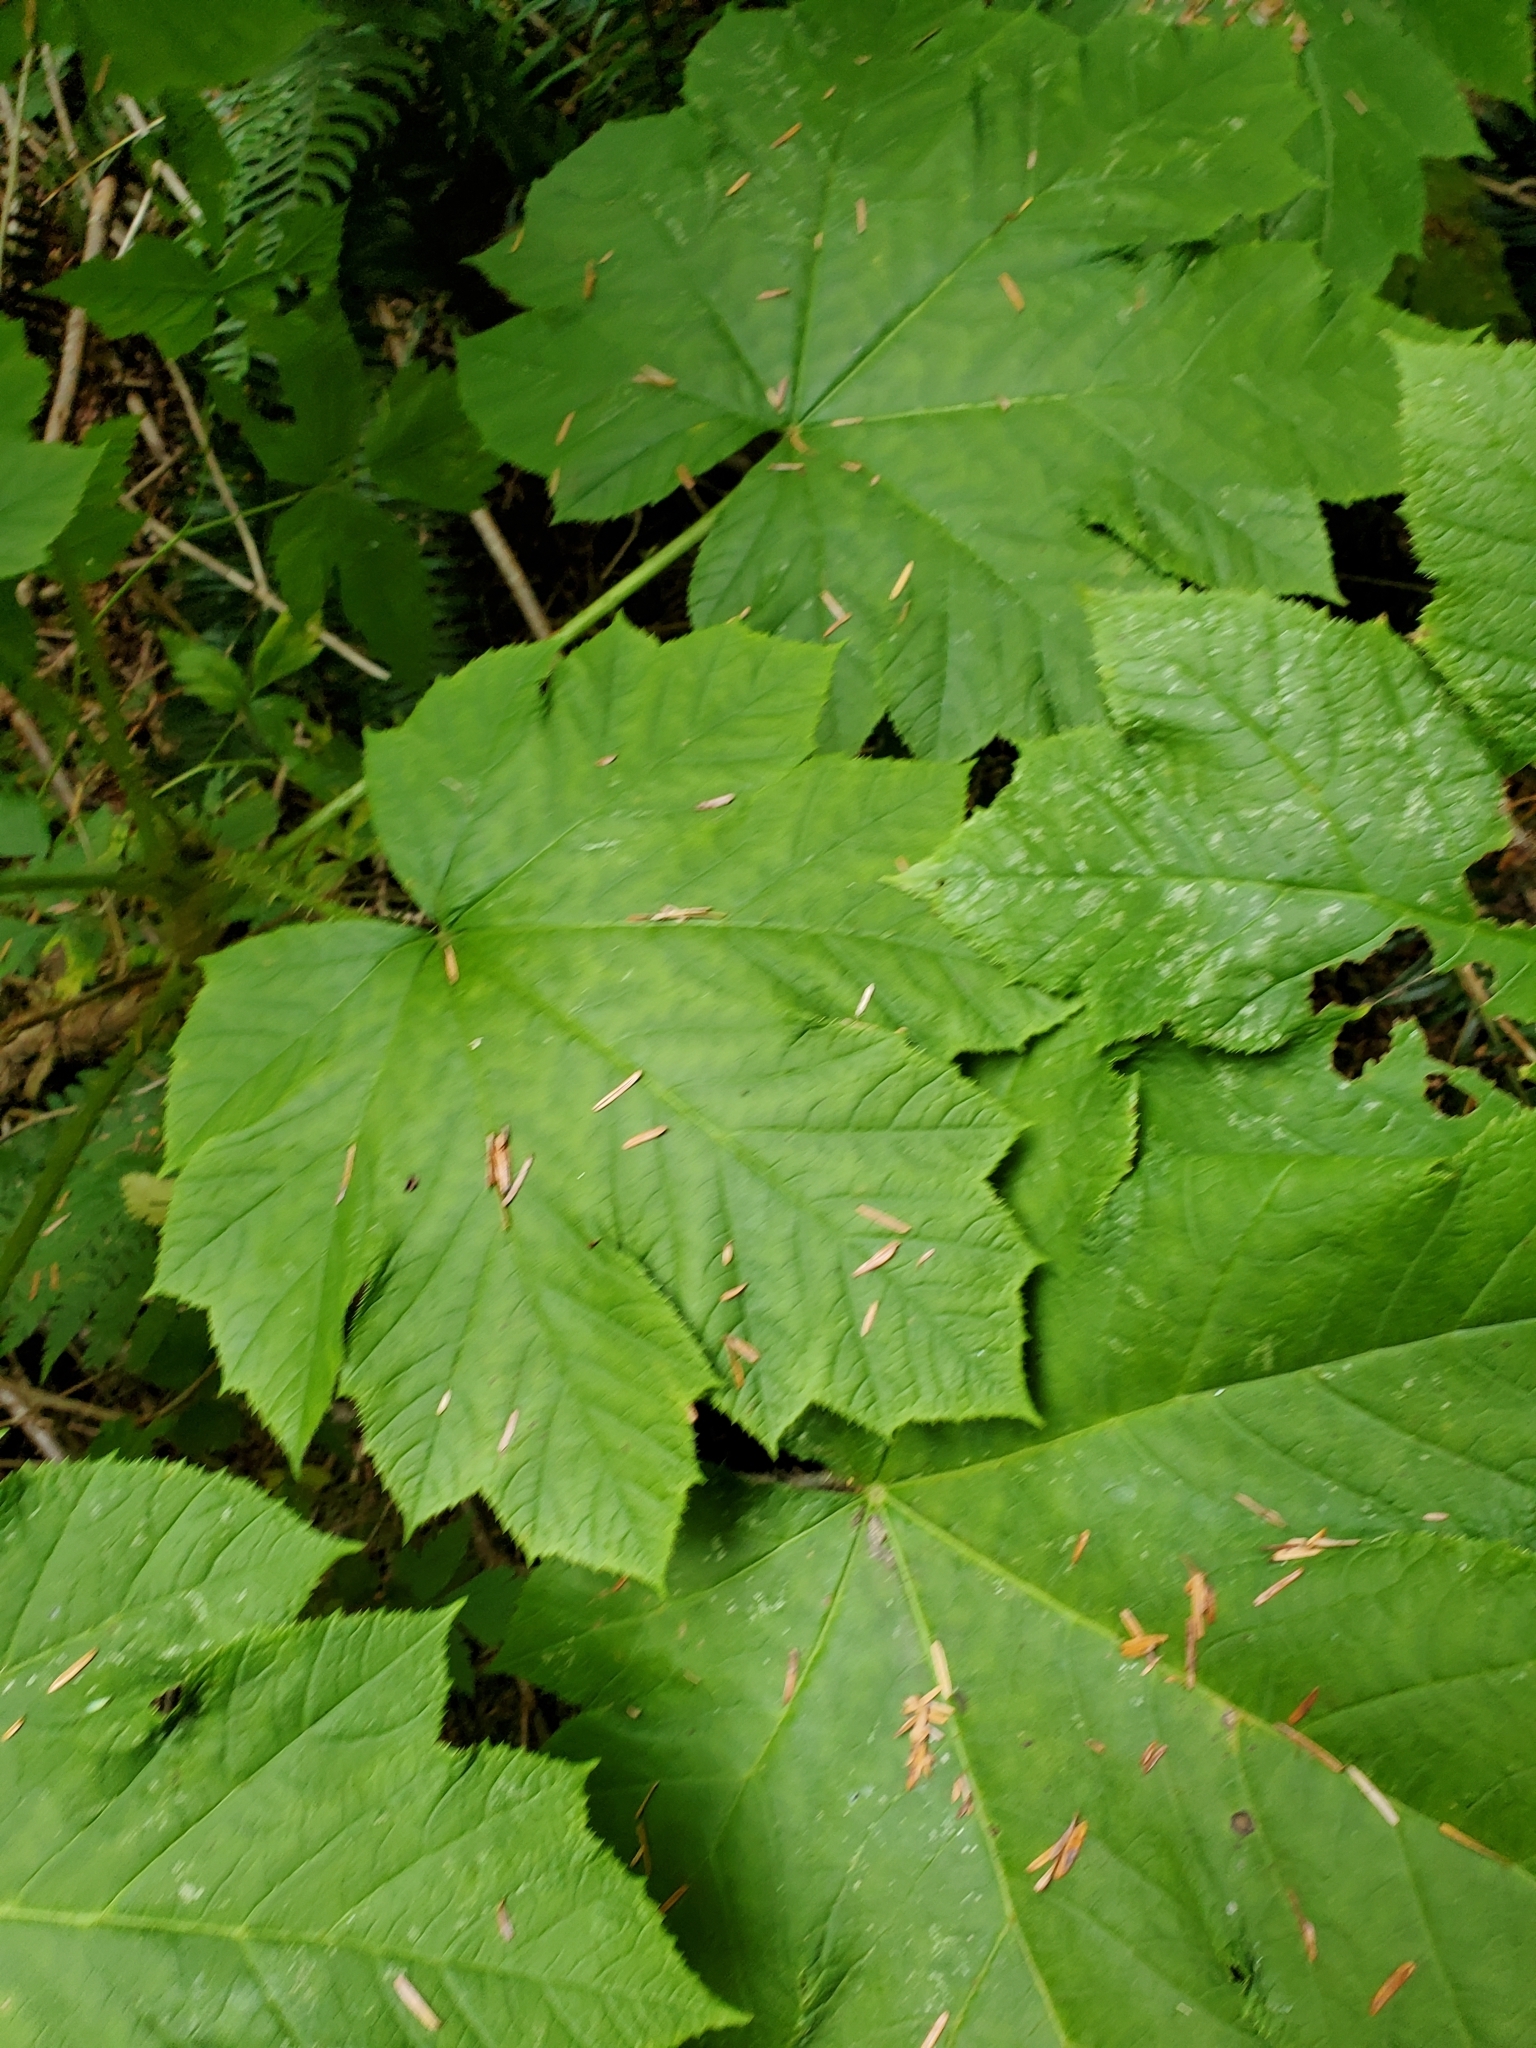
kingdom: Plantae
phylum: Tracheophyta
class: Magnoliopsida
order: Apiales
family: Araliaceae
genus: Oplopanax
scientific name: Oplopanax horridus
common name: Devil's walking-stick
